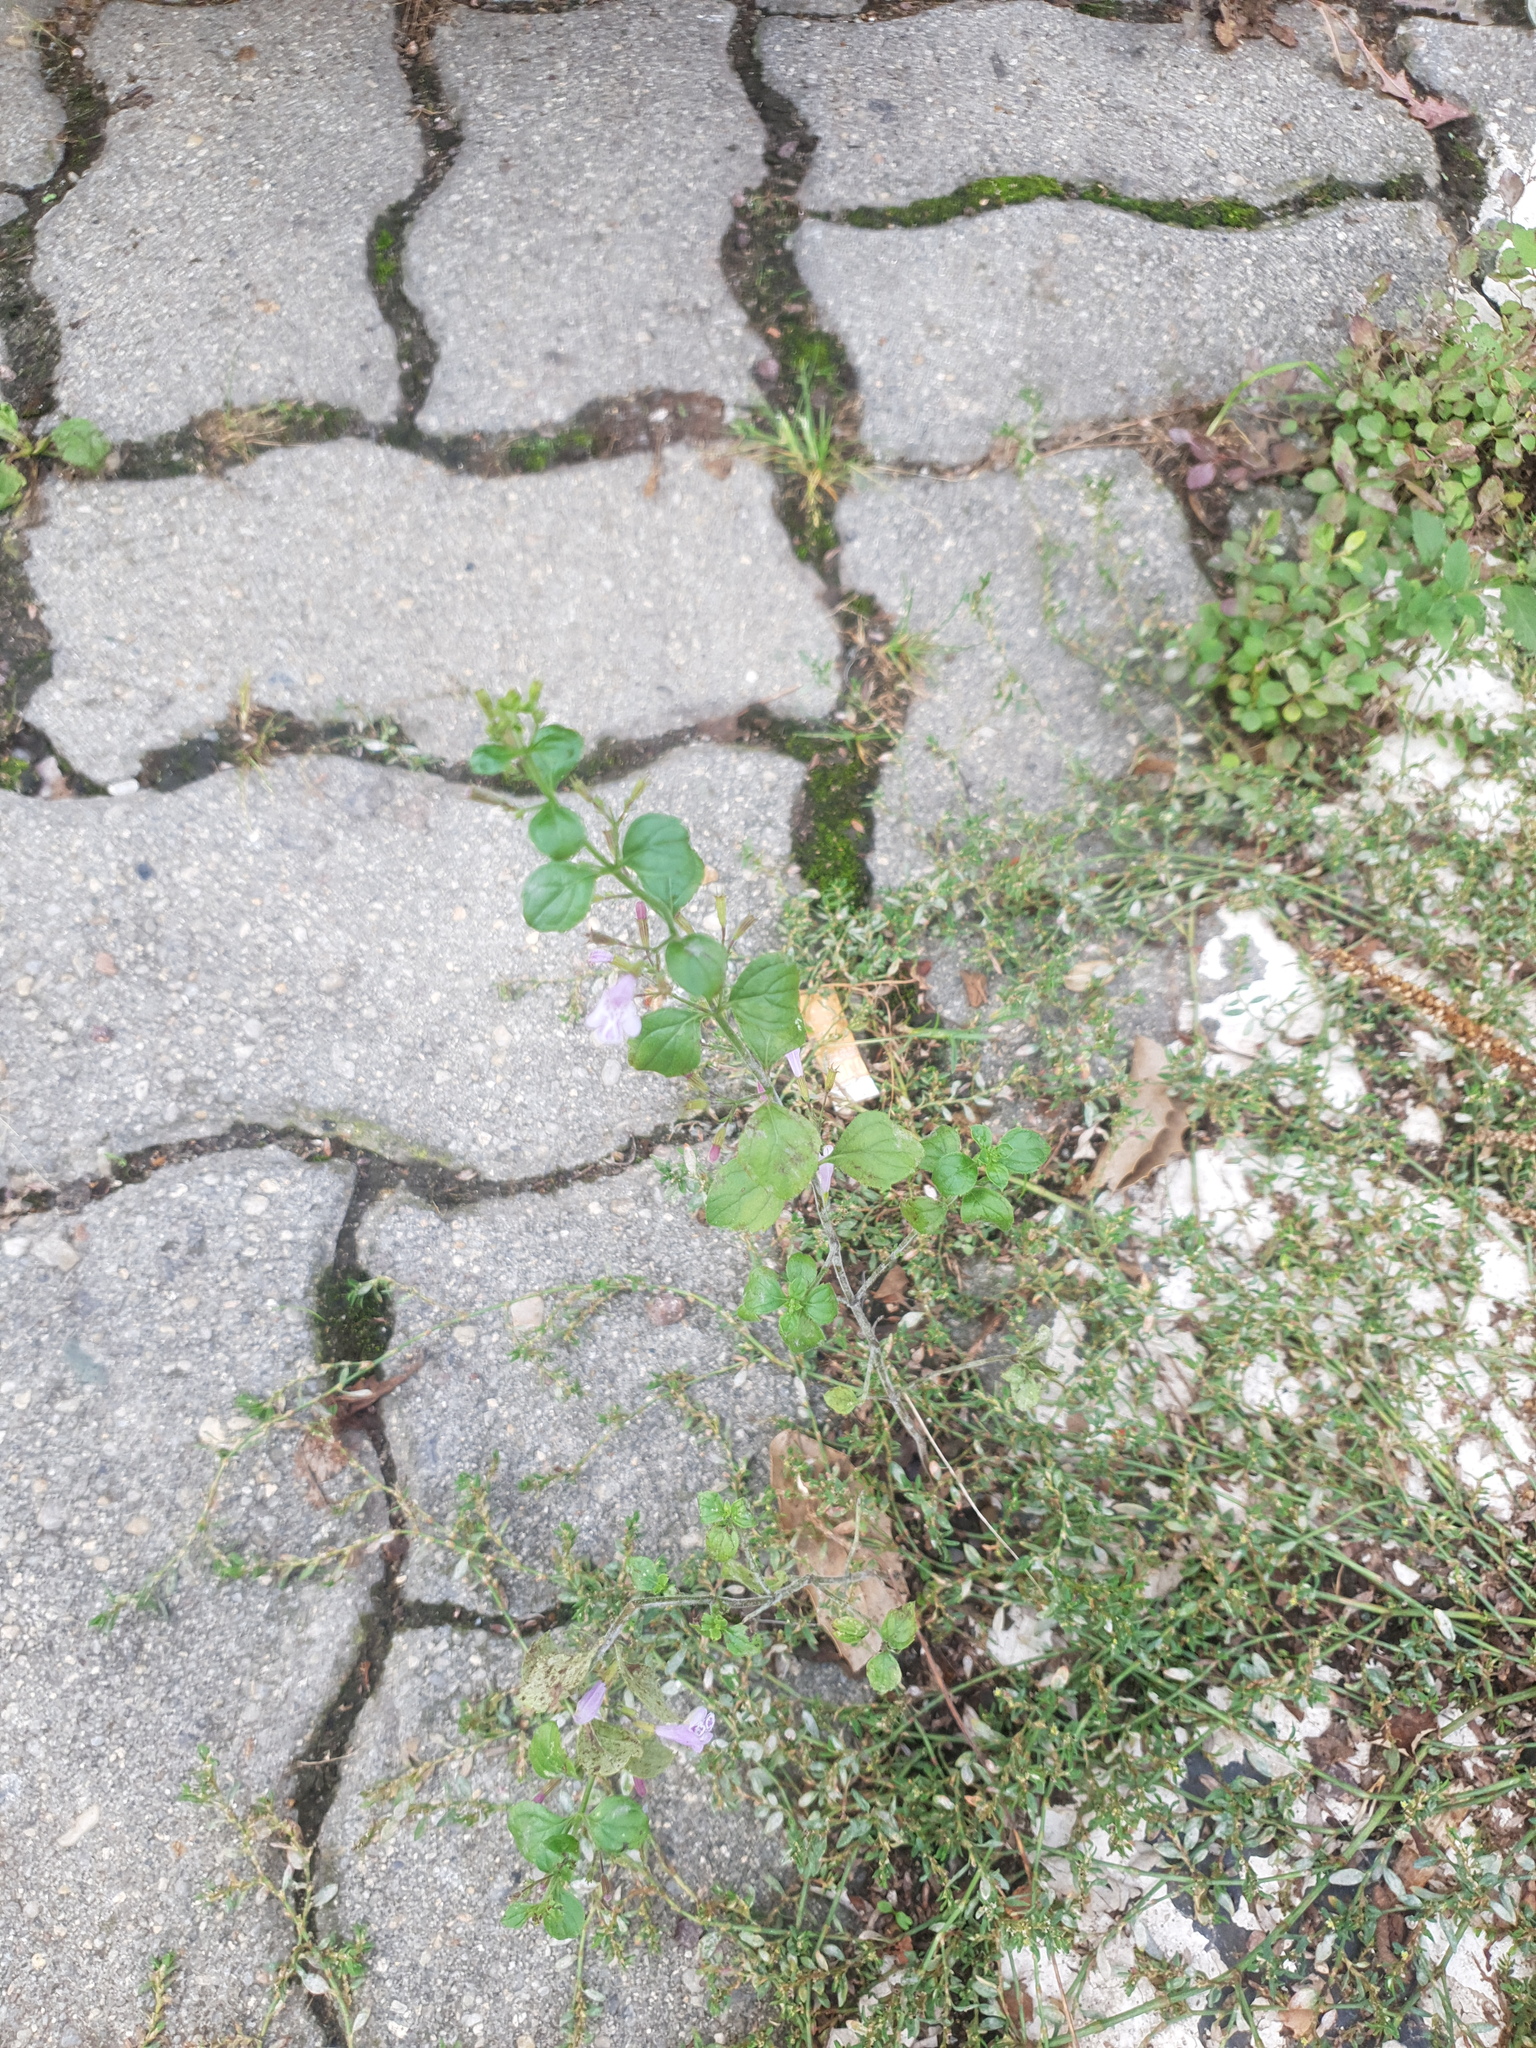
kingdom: Plantae
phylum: Tracheophyta
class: Magnoliopsida
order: Lamiales
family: Lamiaceae
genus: Clinopodium
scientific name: Clinopodium nepeta
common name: Lesser calamint
